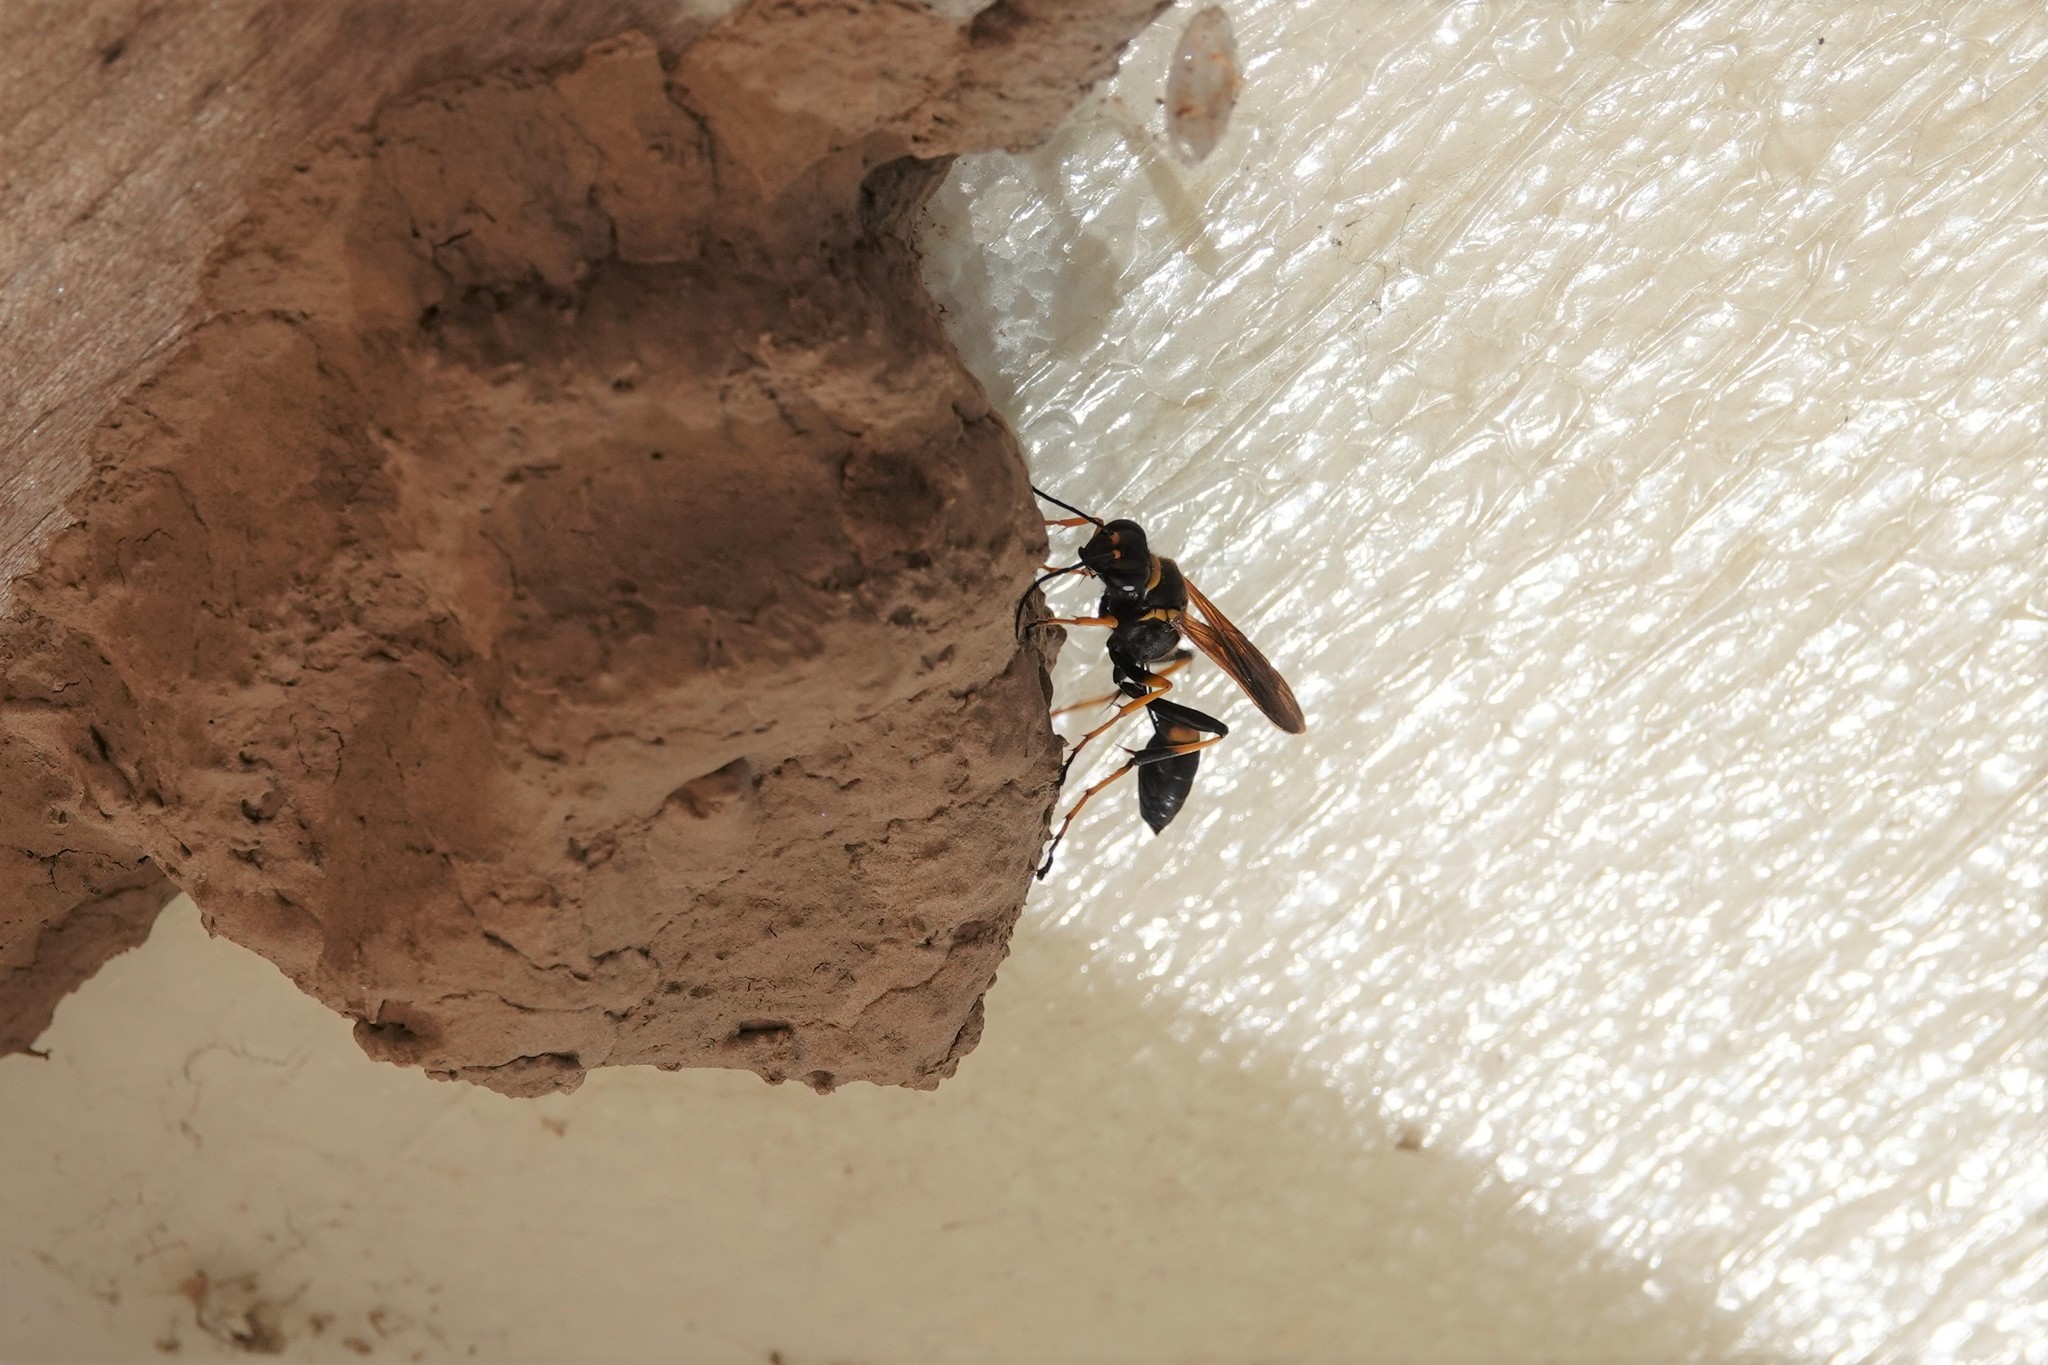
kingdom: Animalia
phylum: Arthropoda
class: Insecta
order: Hymenoptera
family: Sphecidae
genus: Sceliphron
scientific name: Sceliphron caementarium
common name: Mud dauber
